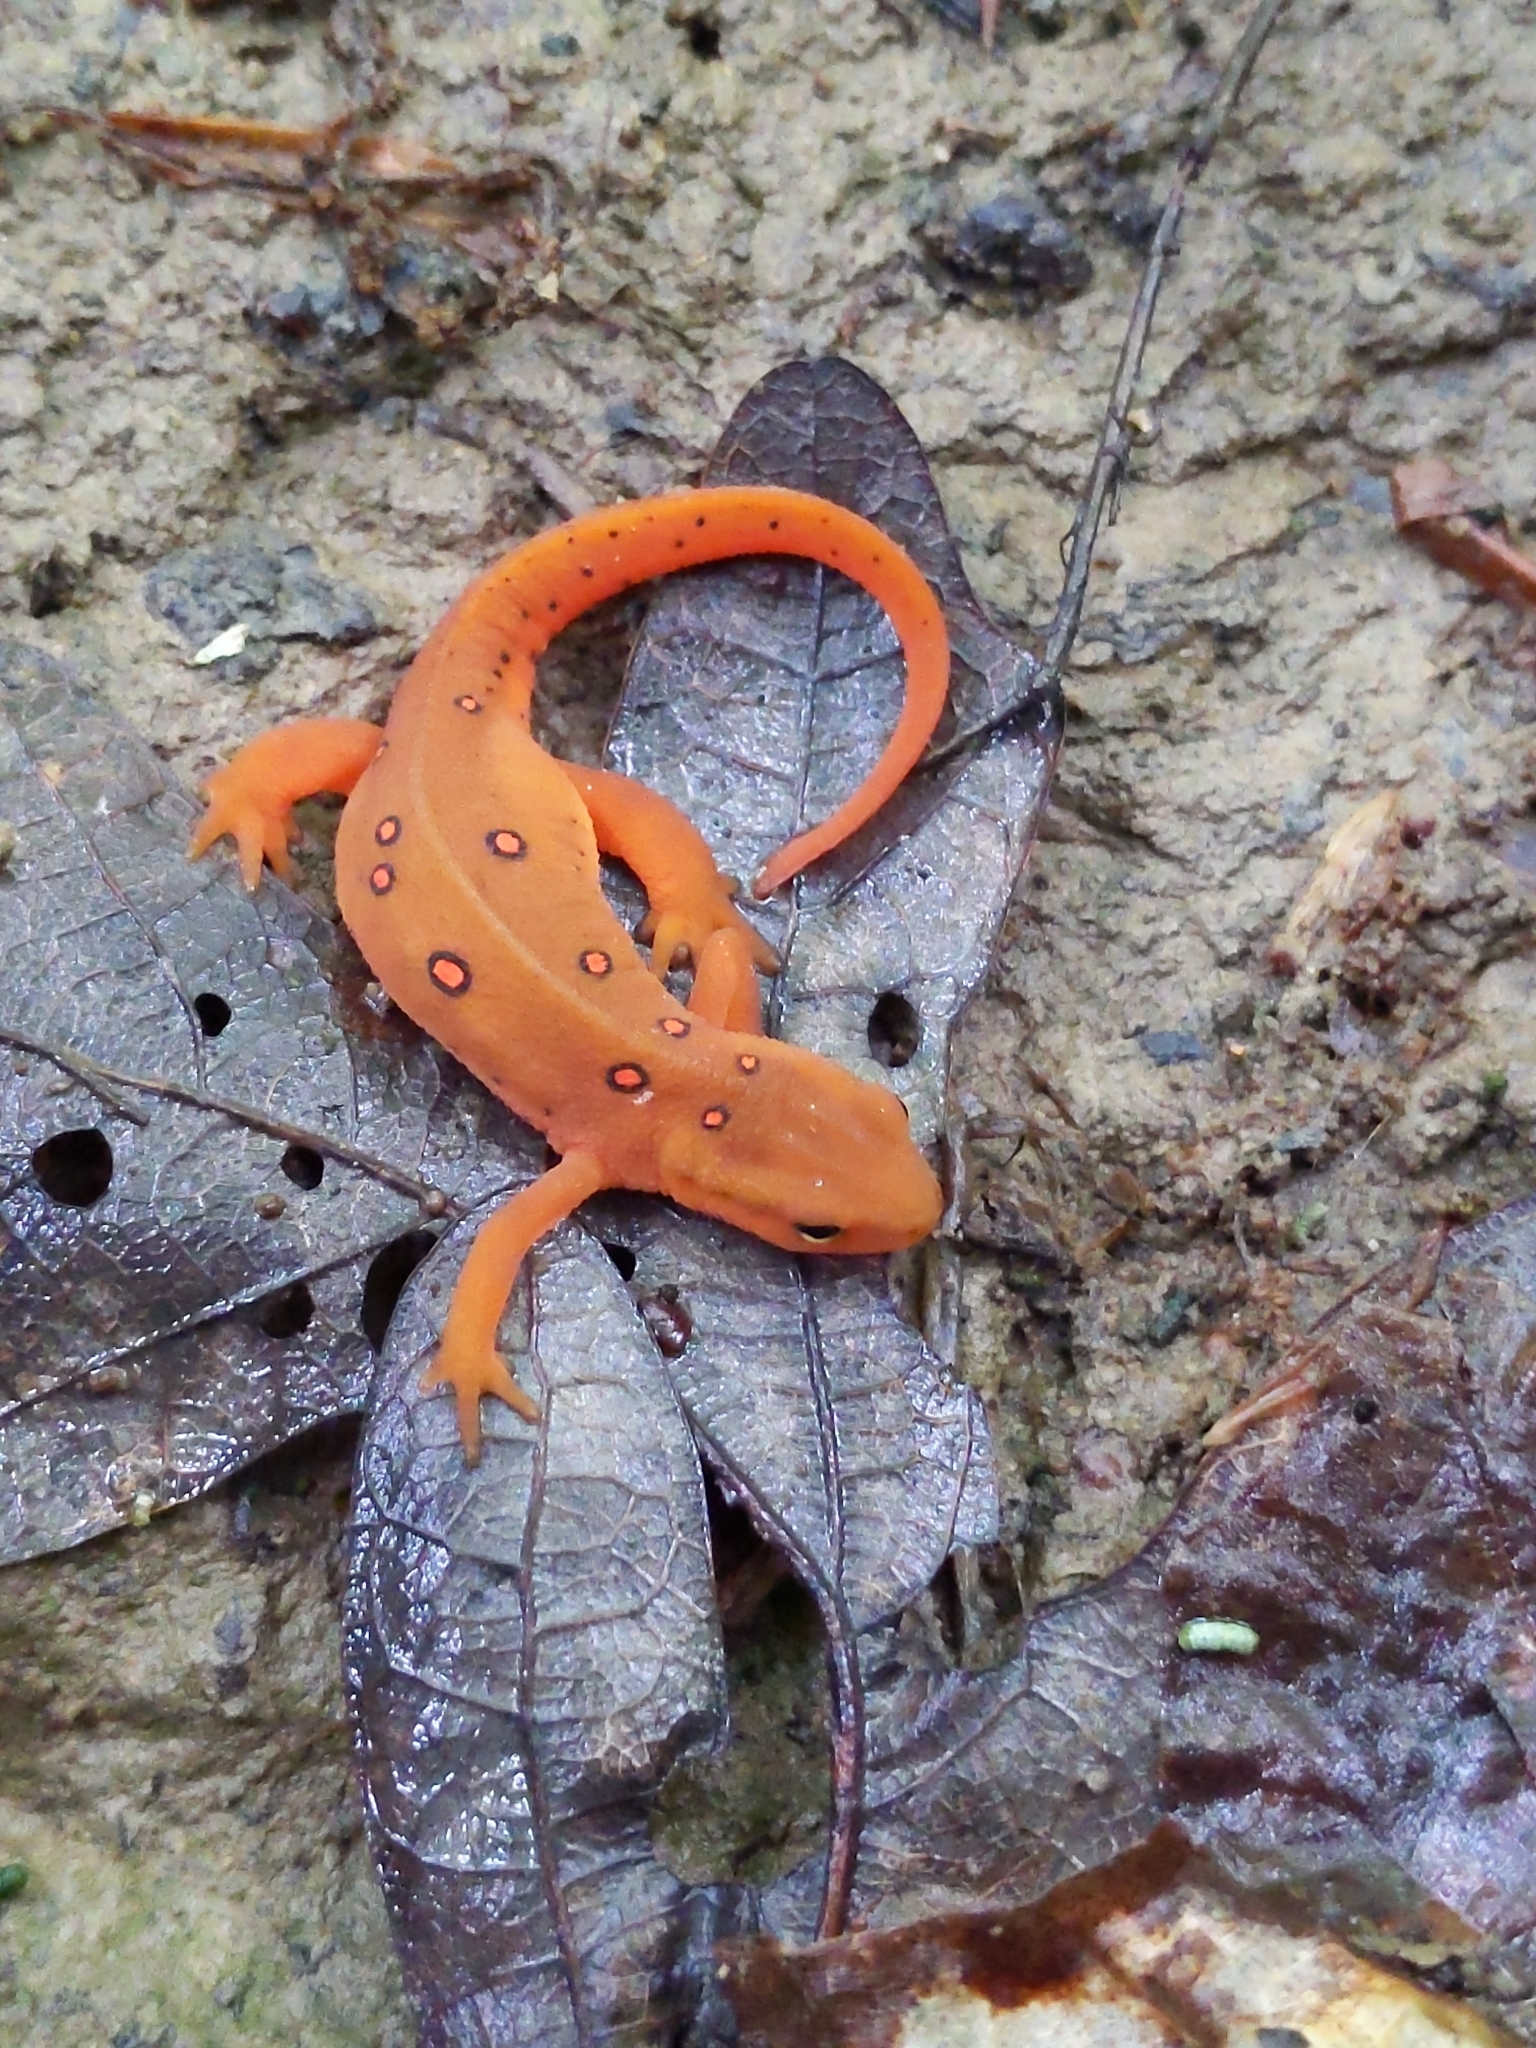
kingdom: Animalia
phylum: Chordata
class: Amphibia
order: Caudata
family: Salamandridae
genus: Notophthalmus
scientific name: Notophthalmus viridescens
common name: Eastern newt
